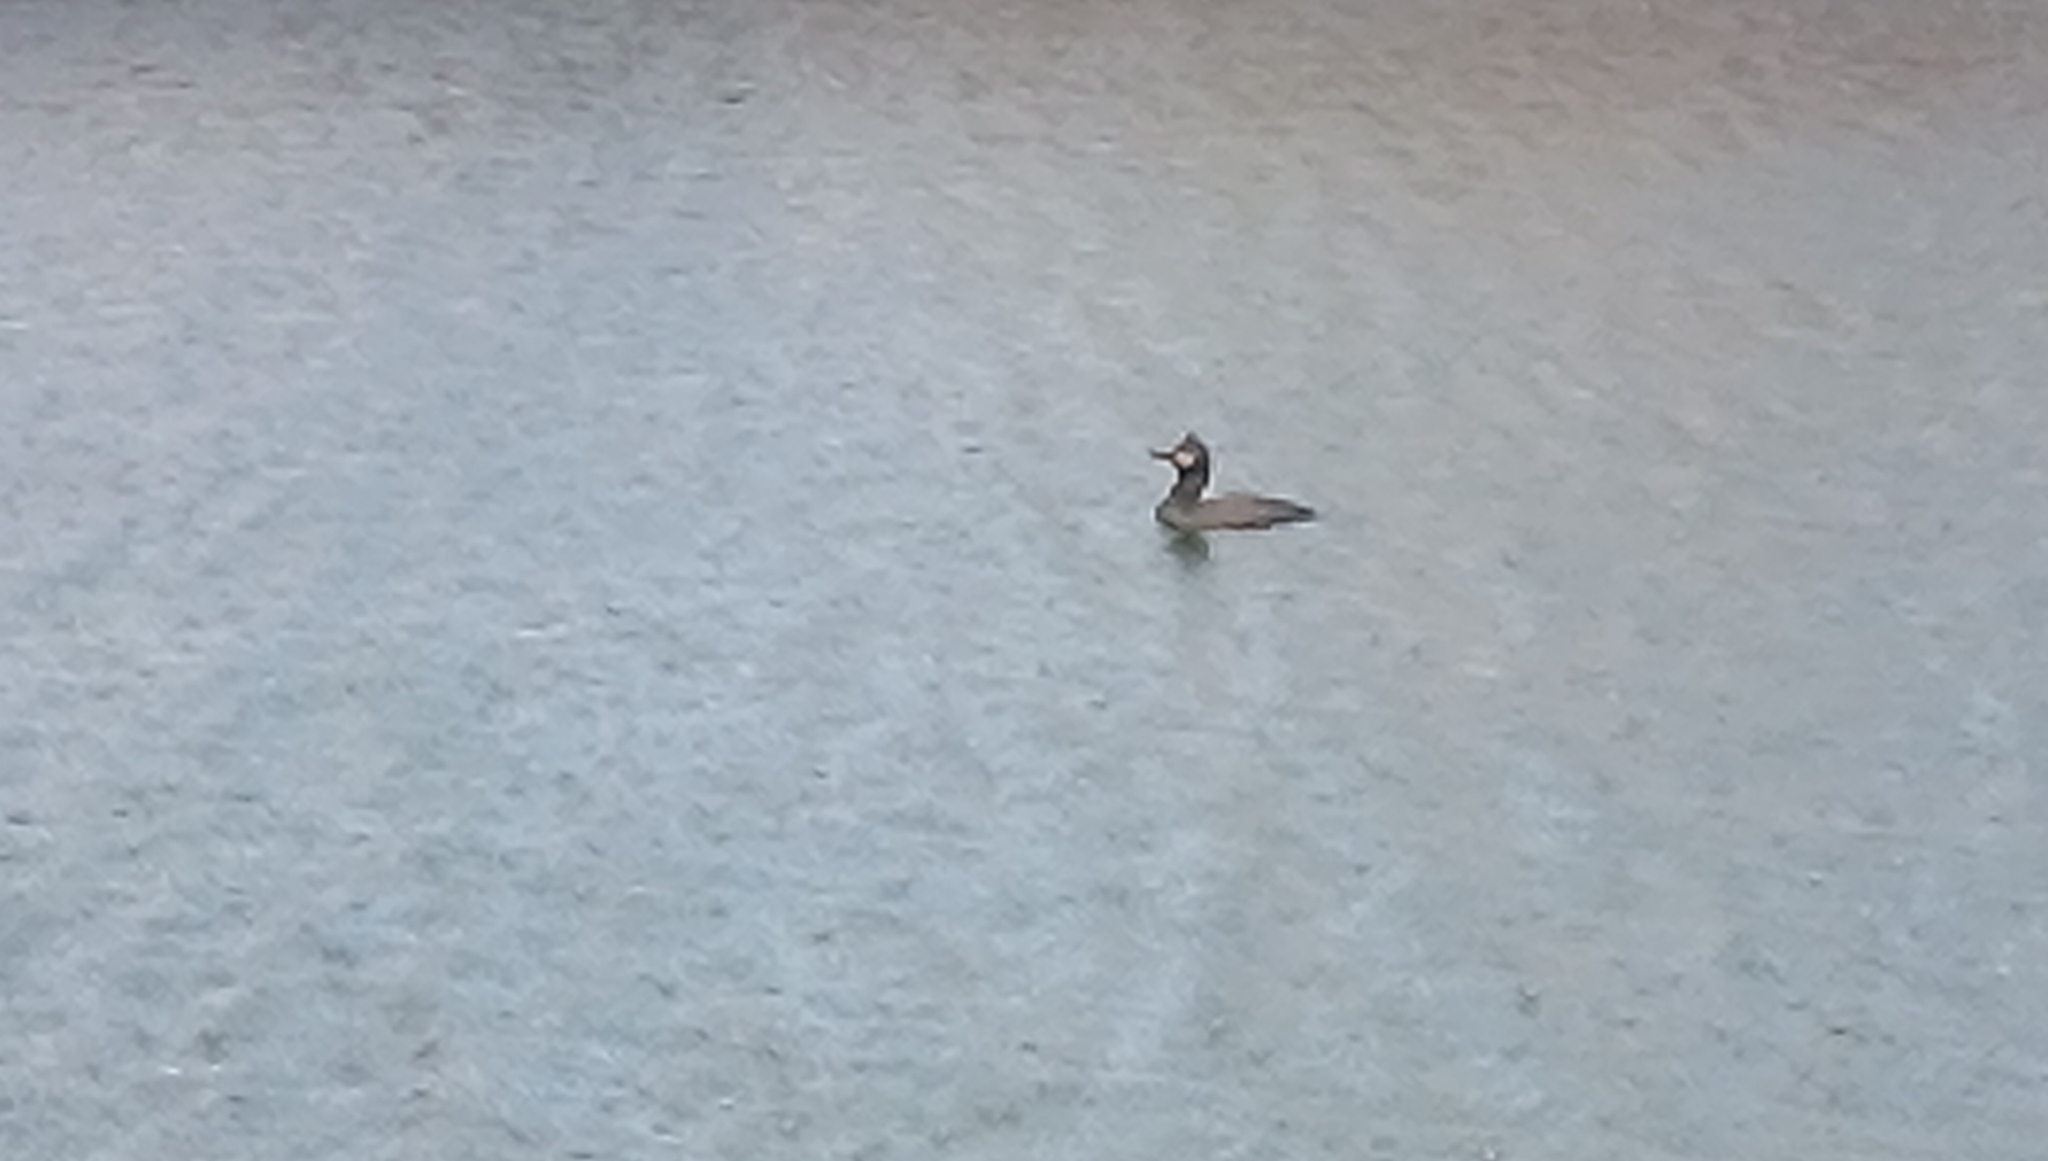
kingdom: Animalia
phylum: Chordata
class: Aves
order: Suliformes
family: Phalacrocoracidae
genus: Phalacrocorax
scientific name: Phalacrocorax aristotelis
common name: European shag
